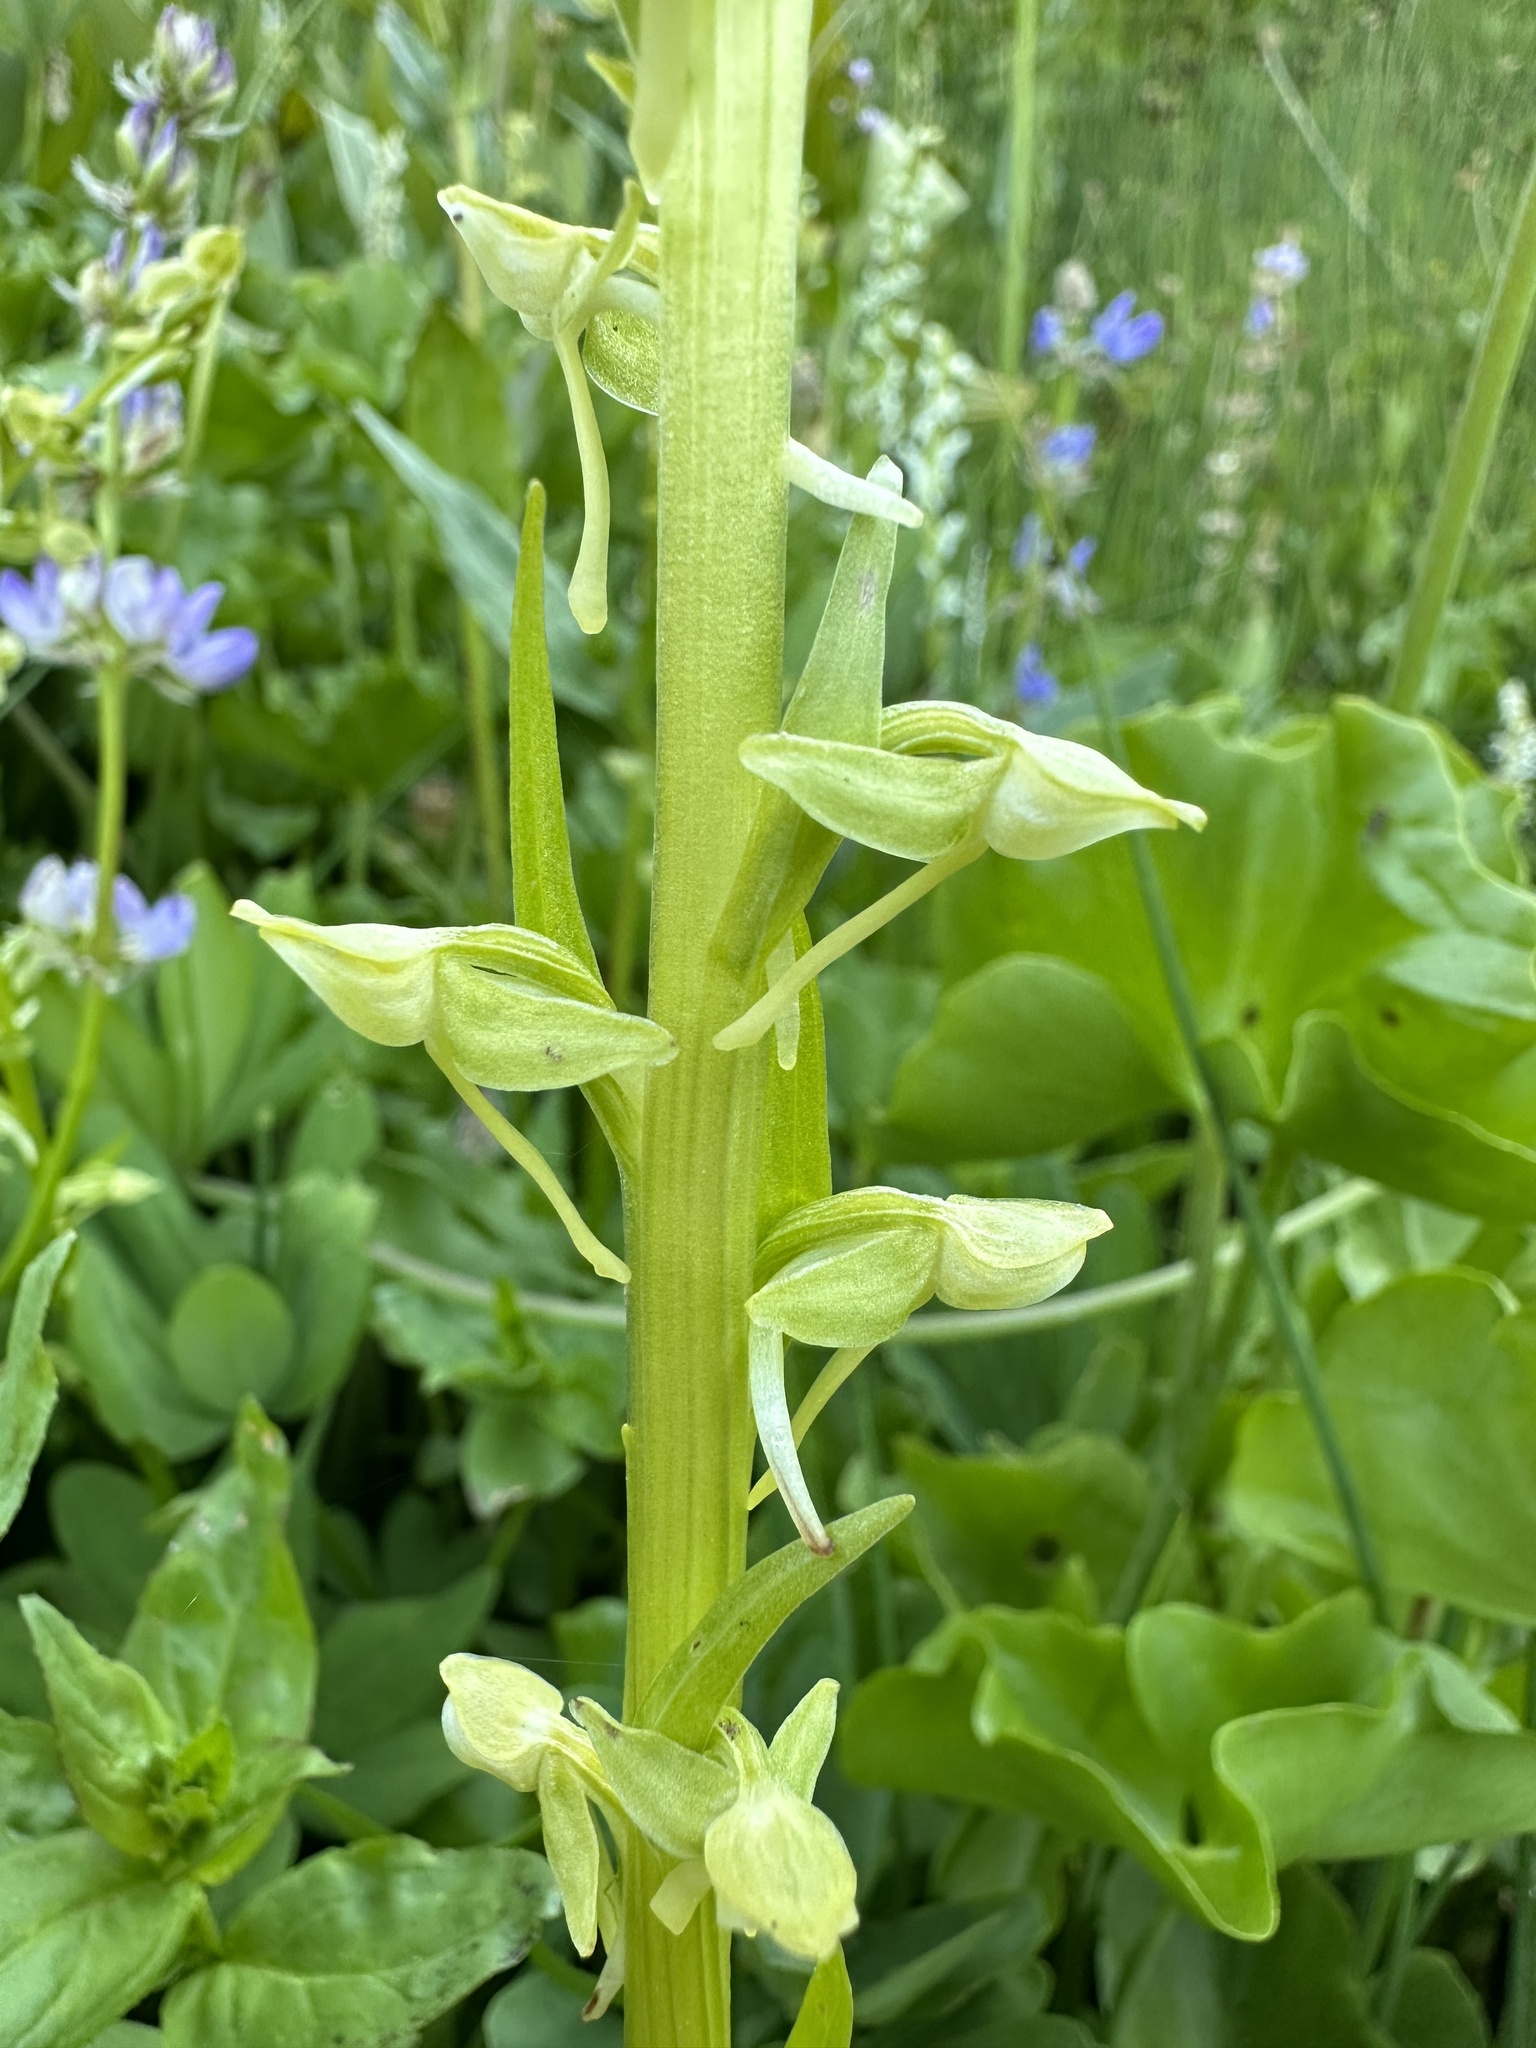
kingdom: Plantae
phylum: Tracheophyta
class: Liliopsida
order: Asparagales
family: Orchidaceae
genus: Platanthera
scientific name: Platanthera sparsiflora
